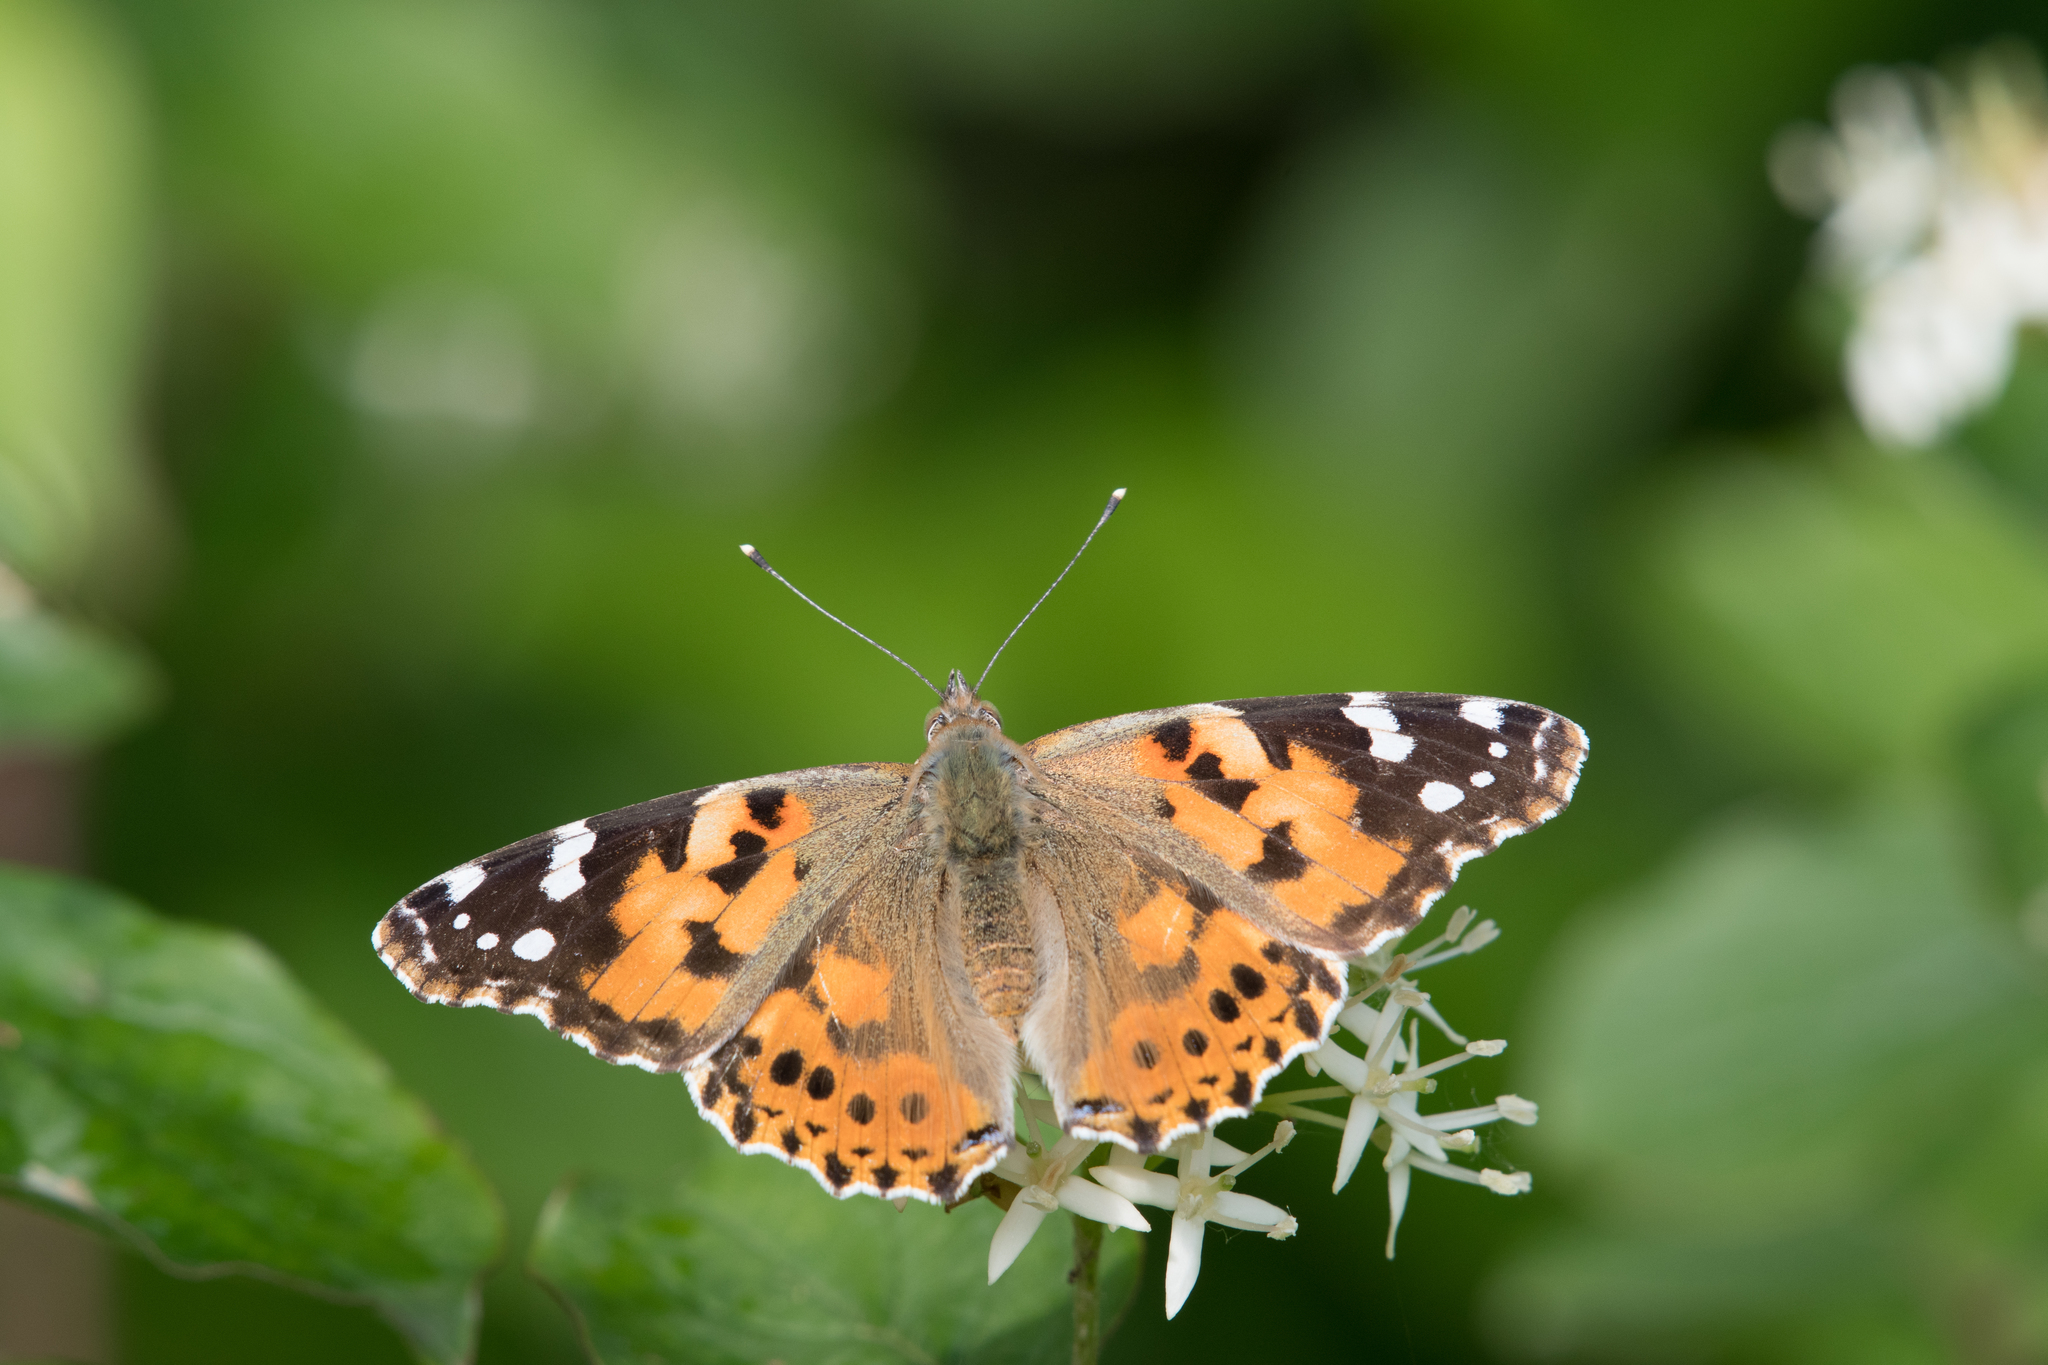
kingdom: Animalia
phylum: Arthropoda
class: Insecta
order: Lepidoptera
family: Nymphalidae
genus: Vanessa
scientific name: Vanessa cardui
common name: Painted lady
